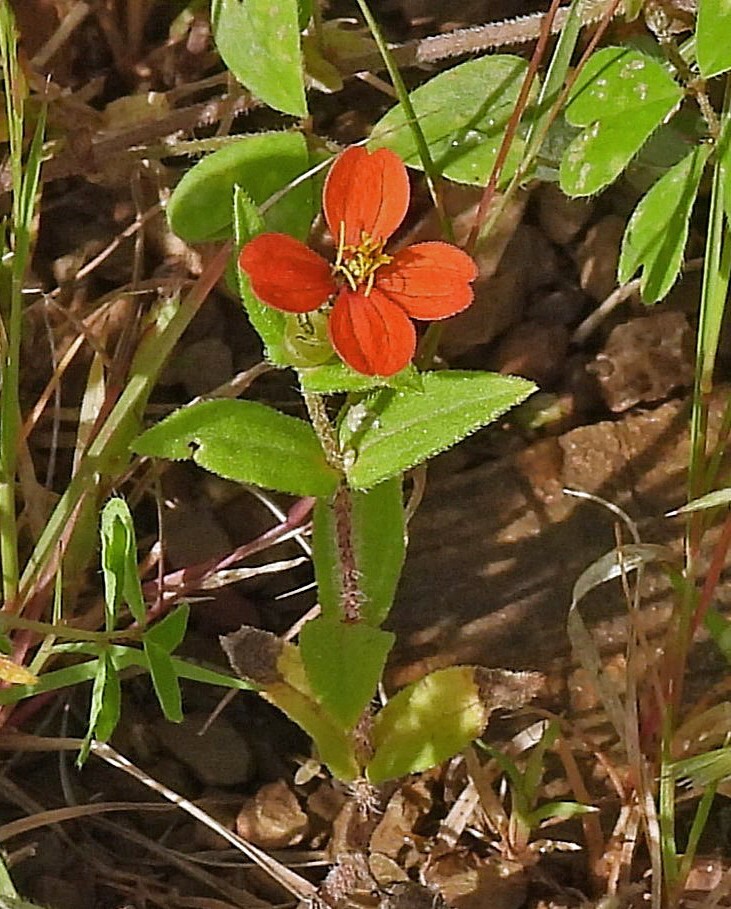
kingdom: Plantae
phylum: Tracheophyta
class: Magnoliopsida
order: Asterales
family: Asteraceae
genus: Zinnia
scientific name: Zinnia peruviana
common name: Peruvian zinnia
